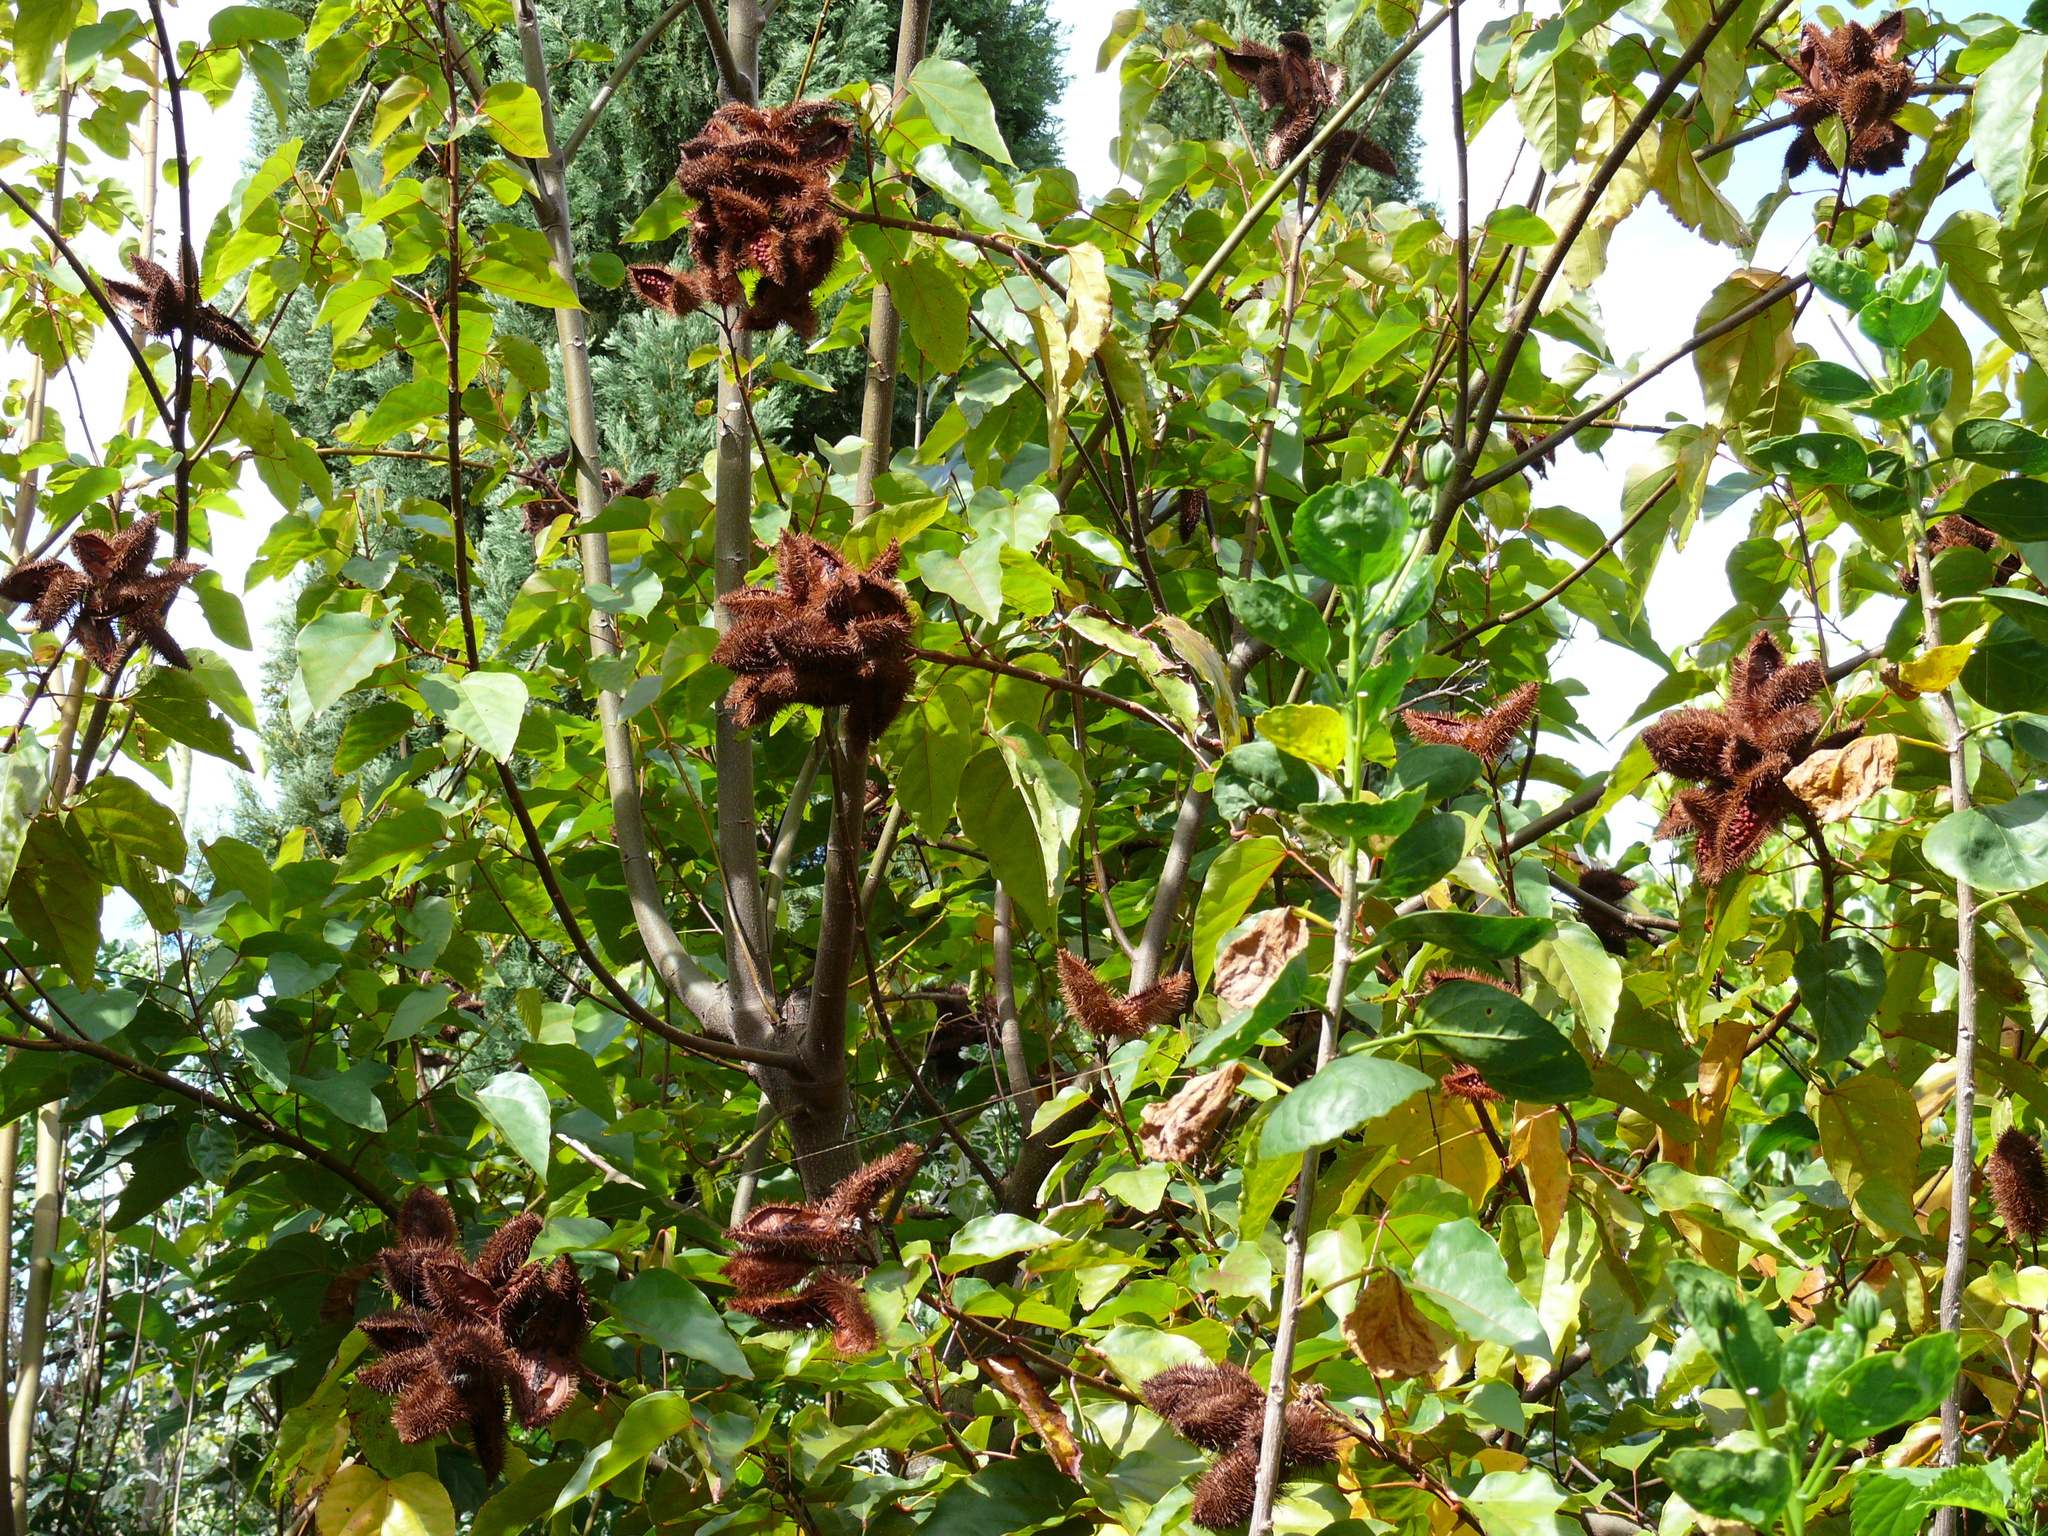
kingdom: Plantae
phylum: Tracheophyta
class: Magnoliopsida
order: Malvales
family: Bixaceae
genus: Bixa
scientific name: Bixa orellana
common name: Lipsticktree
